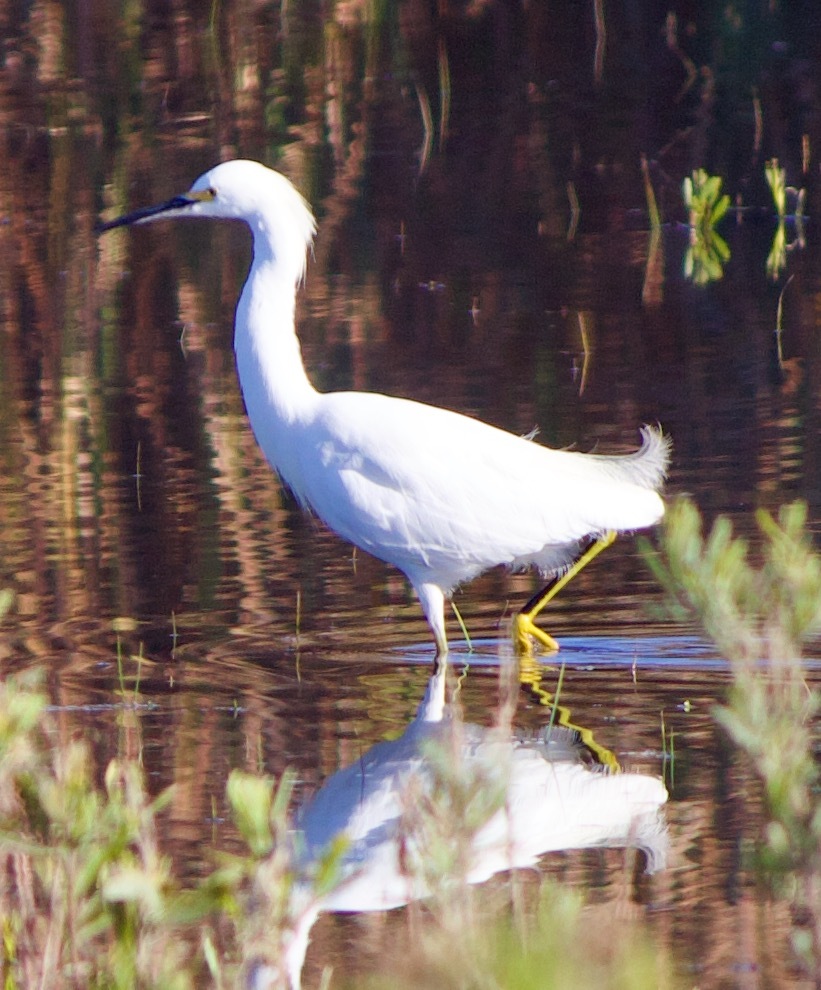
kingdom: Animalia
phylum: Chordata
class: Aves
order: Pelecaniformes
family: Ardeidae
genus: Egretta
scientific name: Egretta thula
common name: Snowy egret
